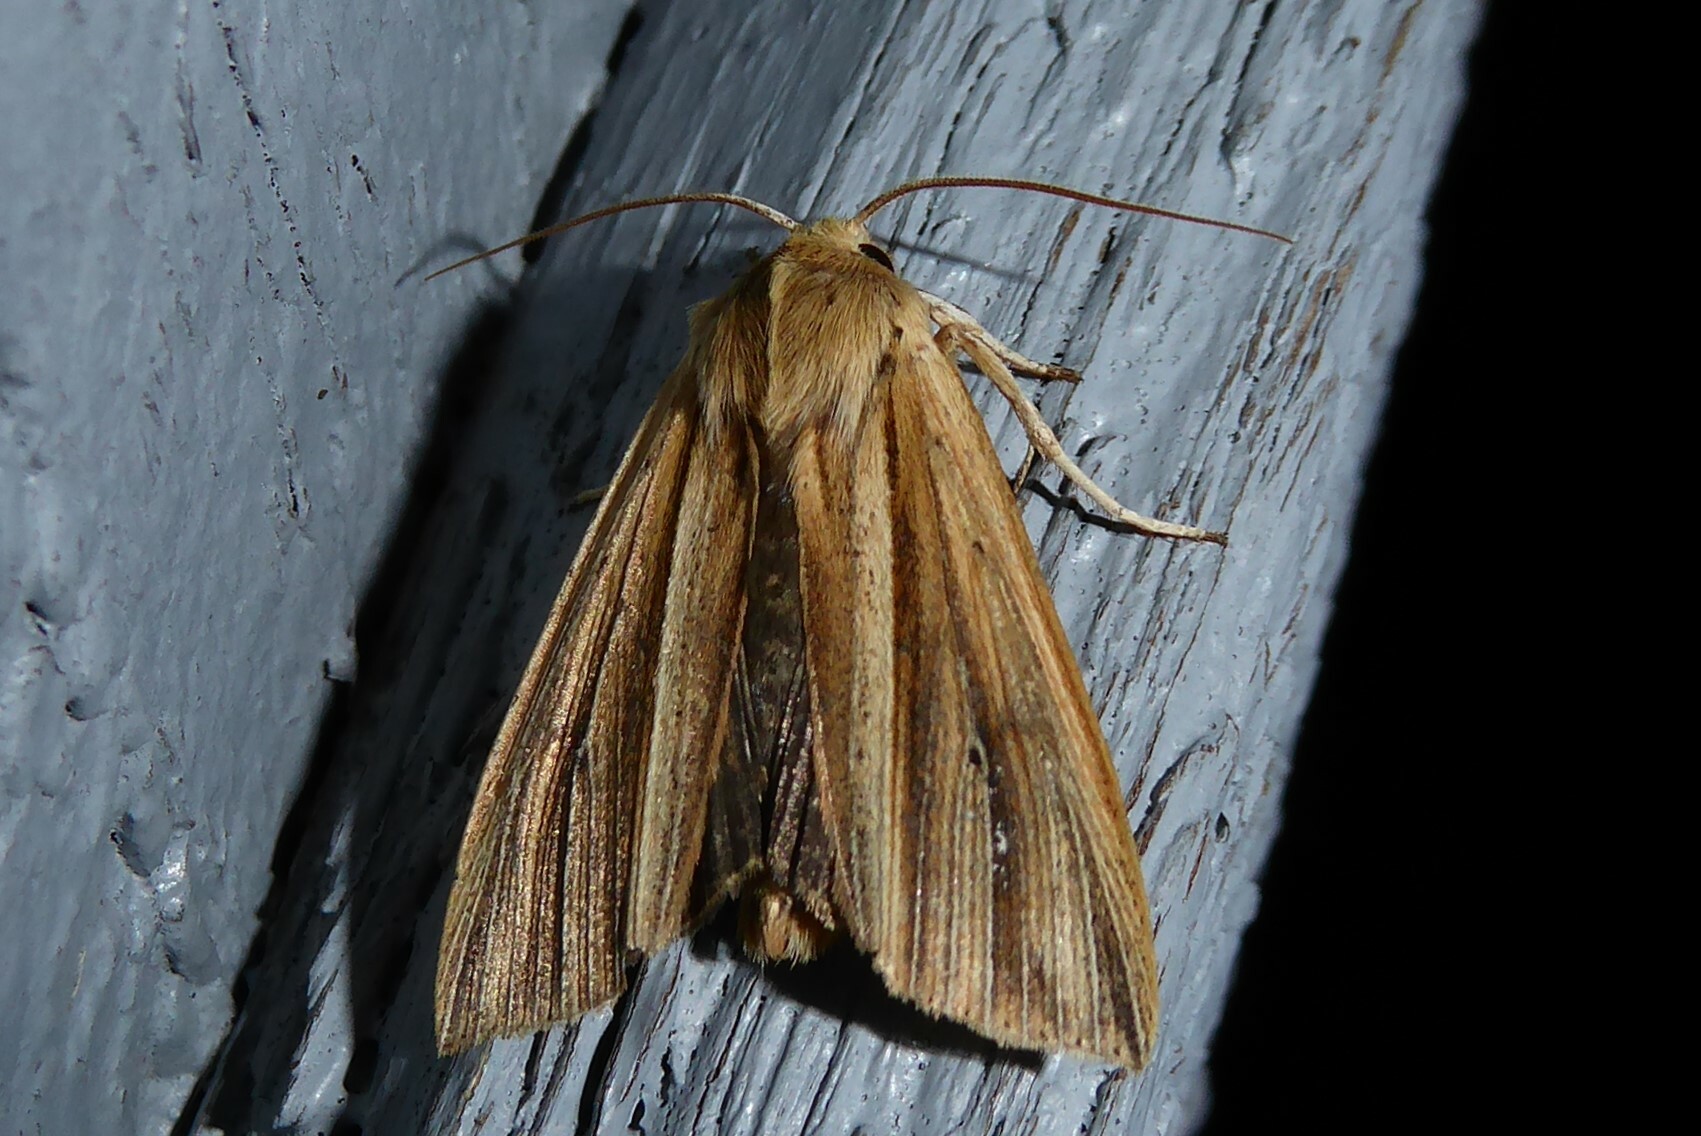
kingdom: Animalia
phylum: Arthropoda
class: Insecta
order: Lepidoptera
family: Noctuidae
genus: Ichneutica
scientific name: Ichneutica sulcana
